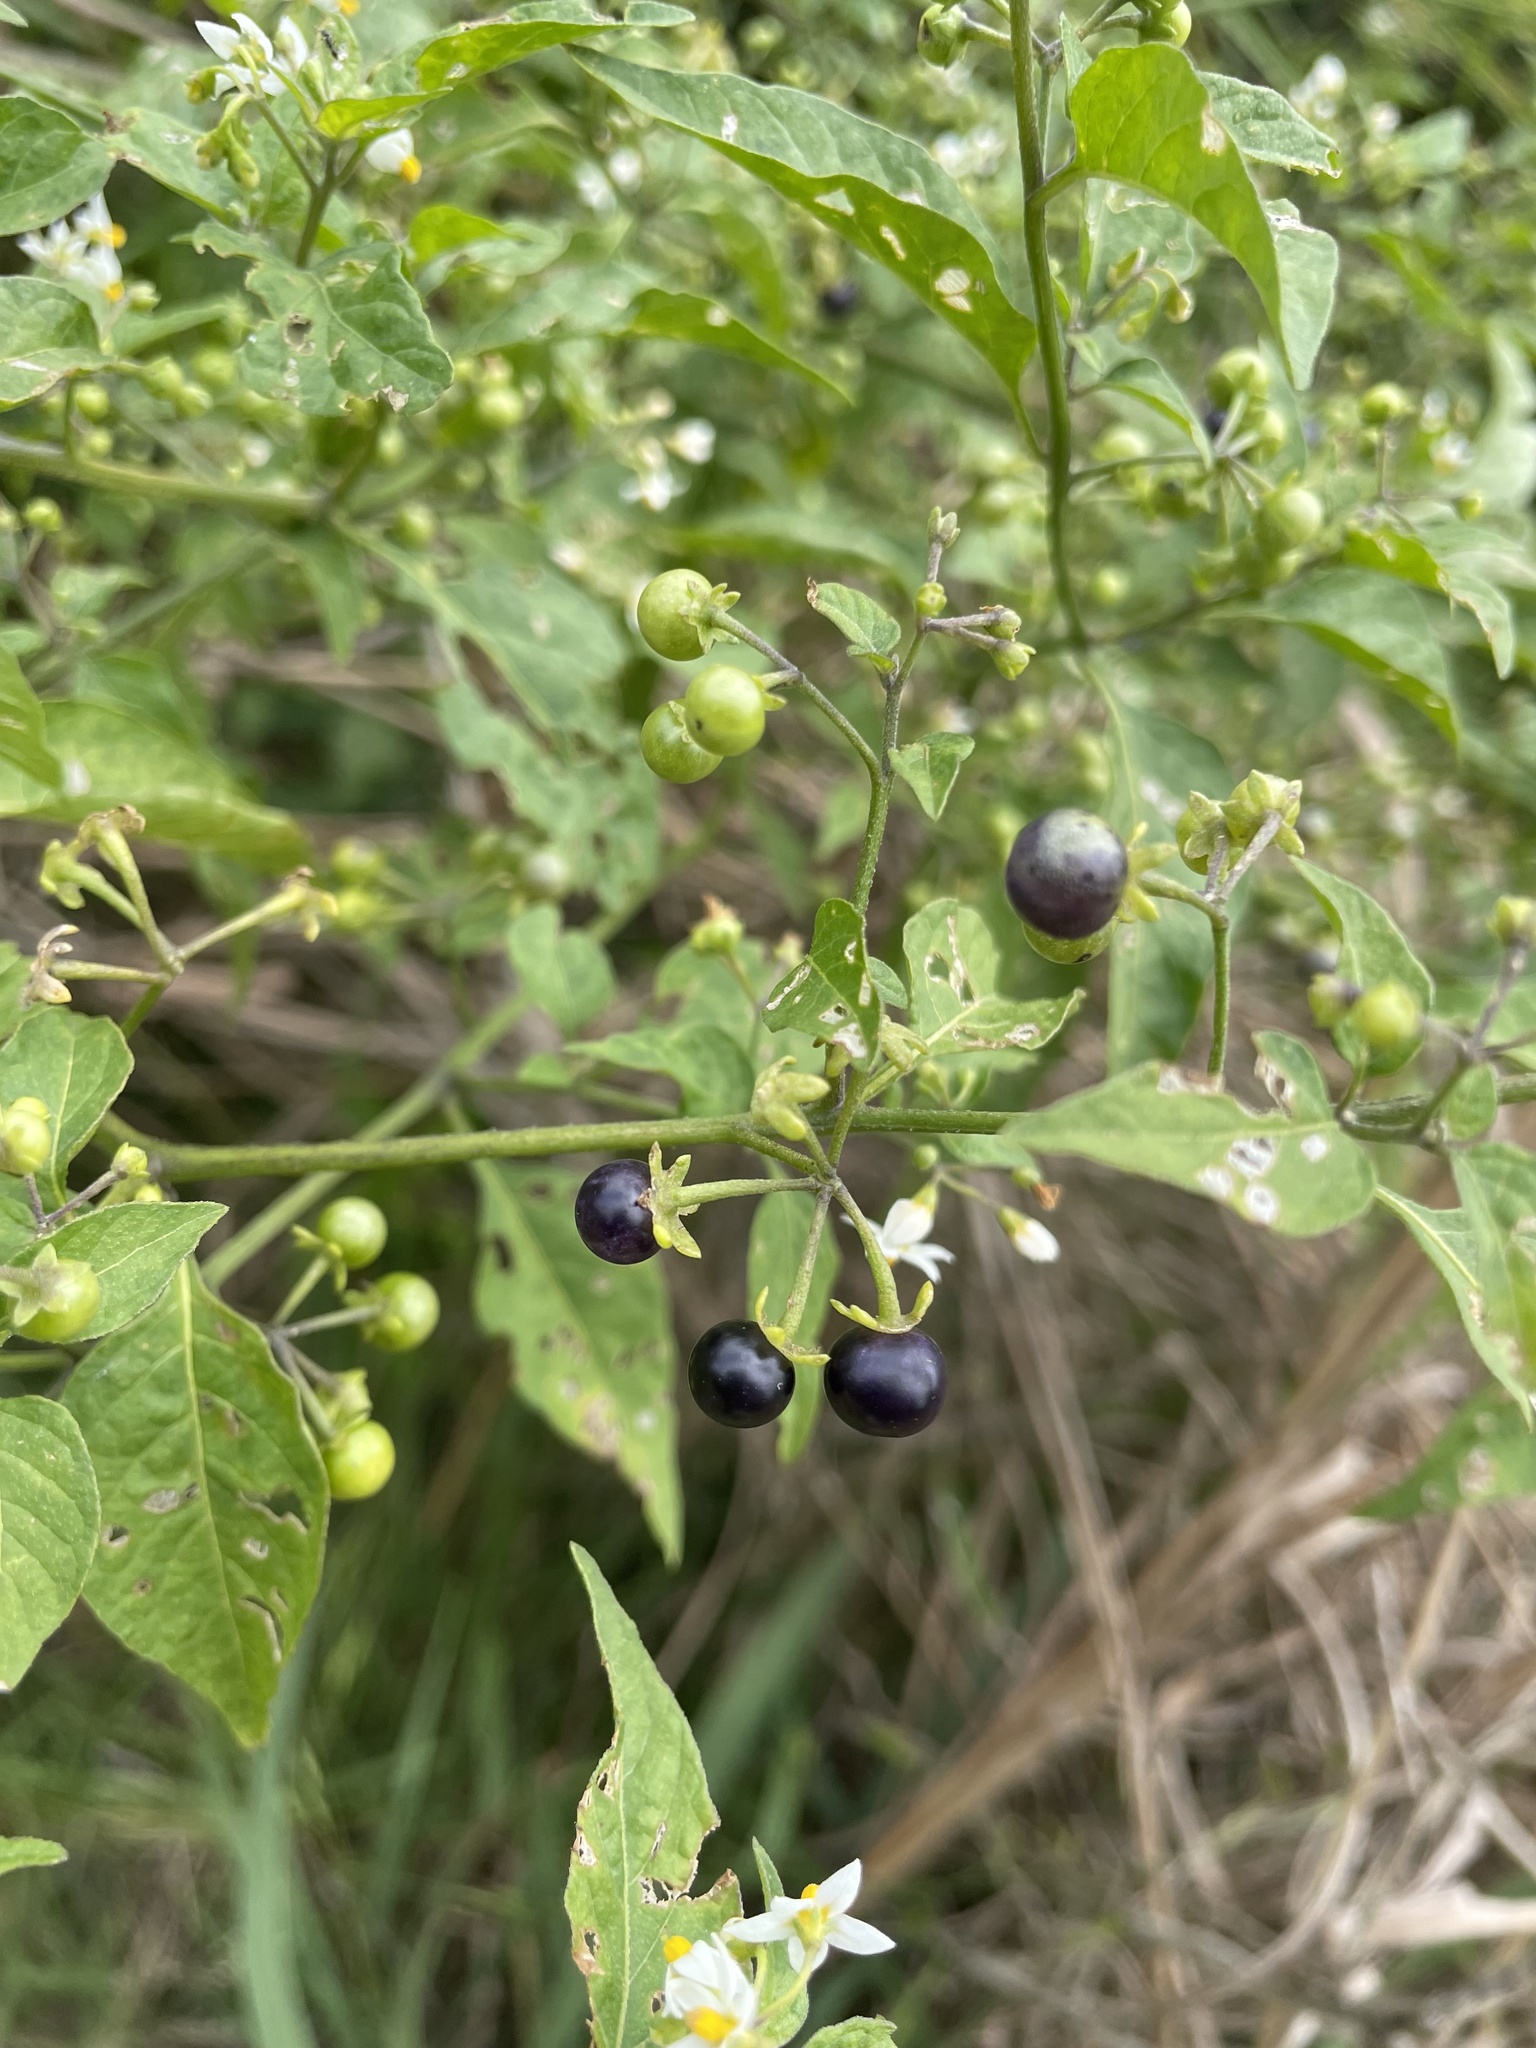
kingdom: Plantae
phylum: Tracheophyta
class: Magnoliopsida
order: Solanales
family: Solanaceae
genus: Solanum
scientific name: Solanum americanum
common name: American black nightshade
